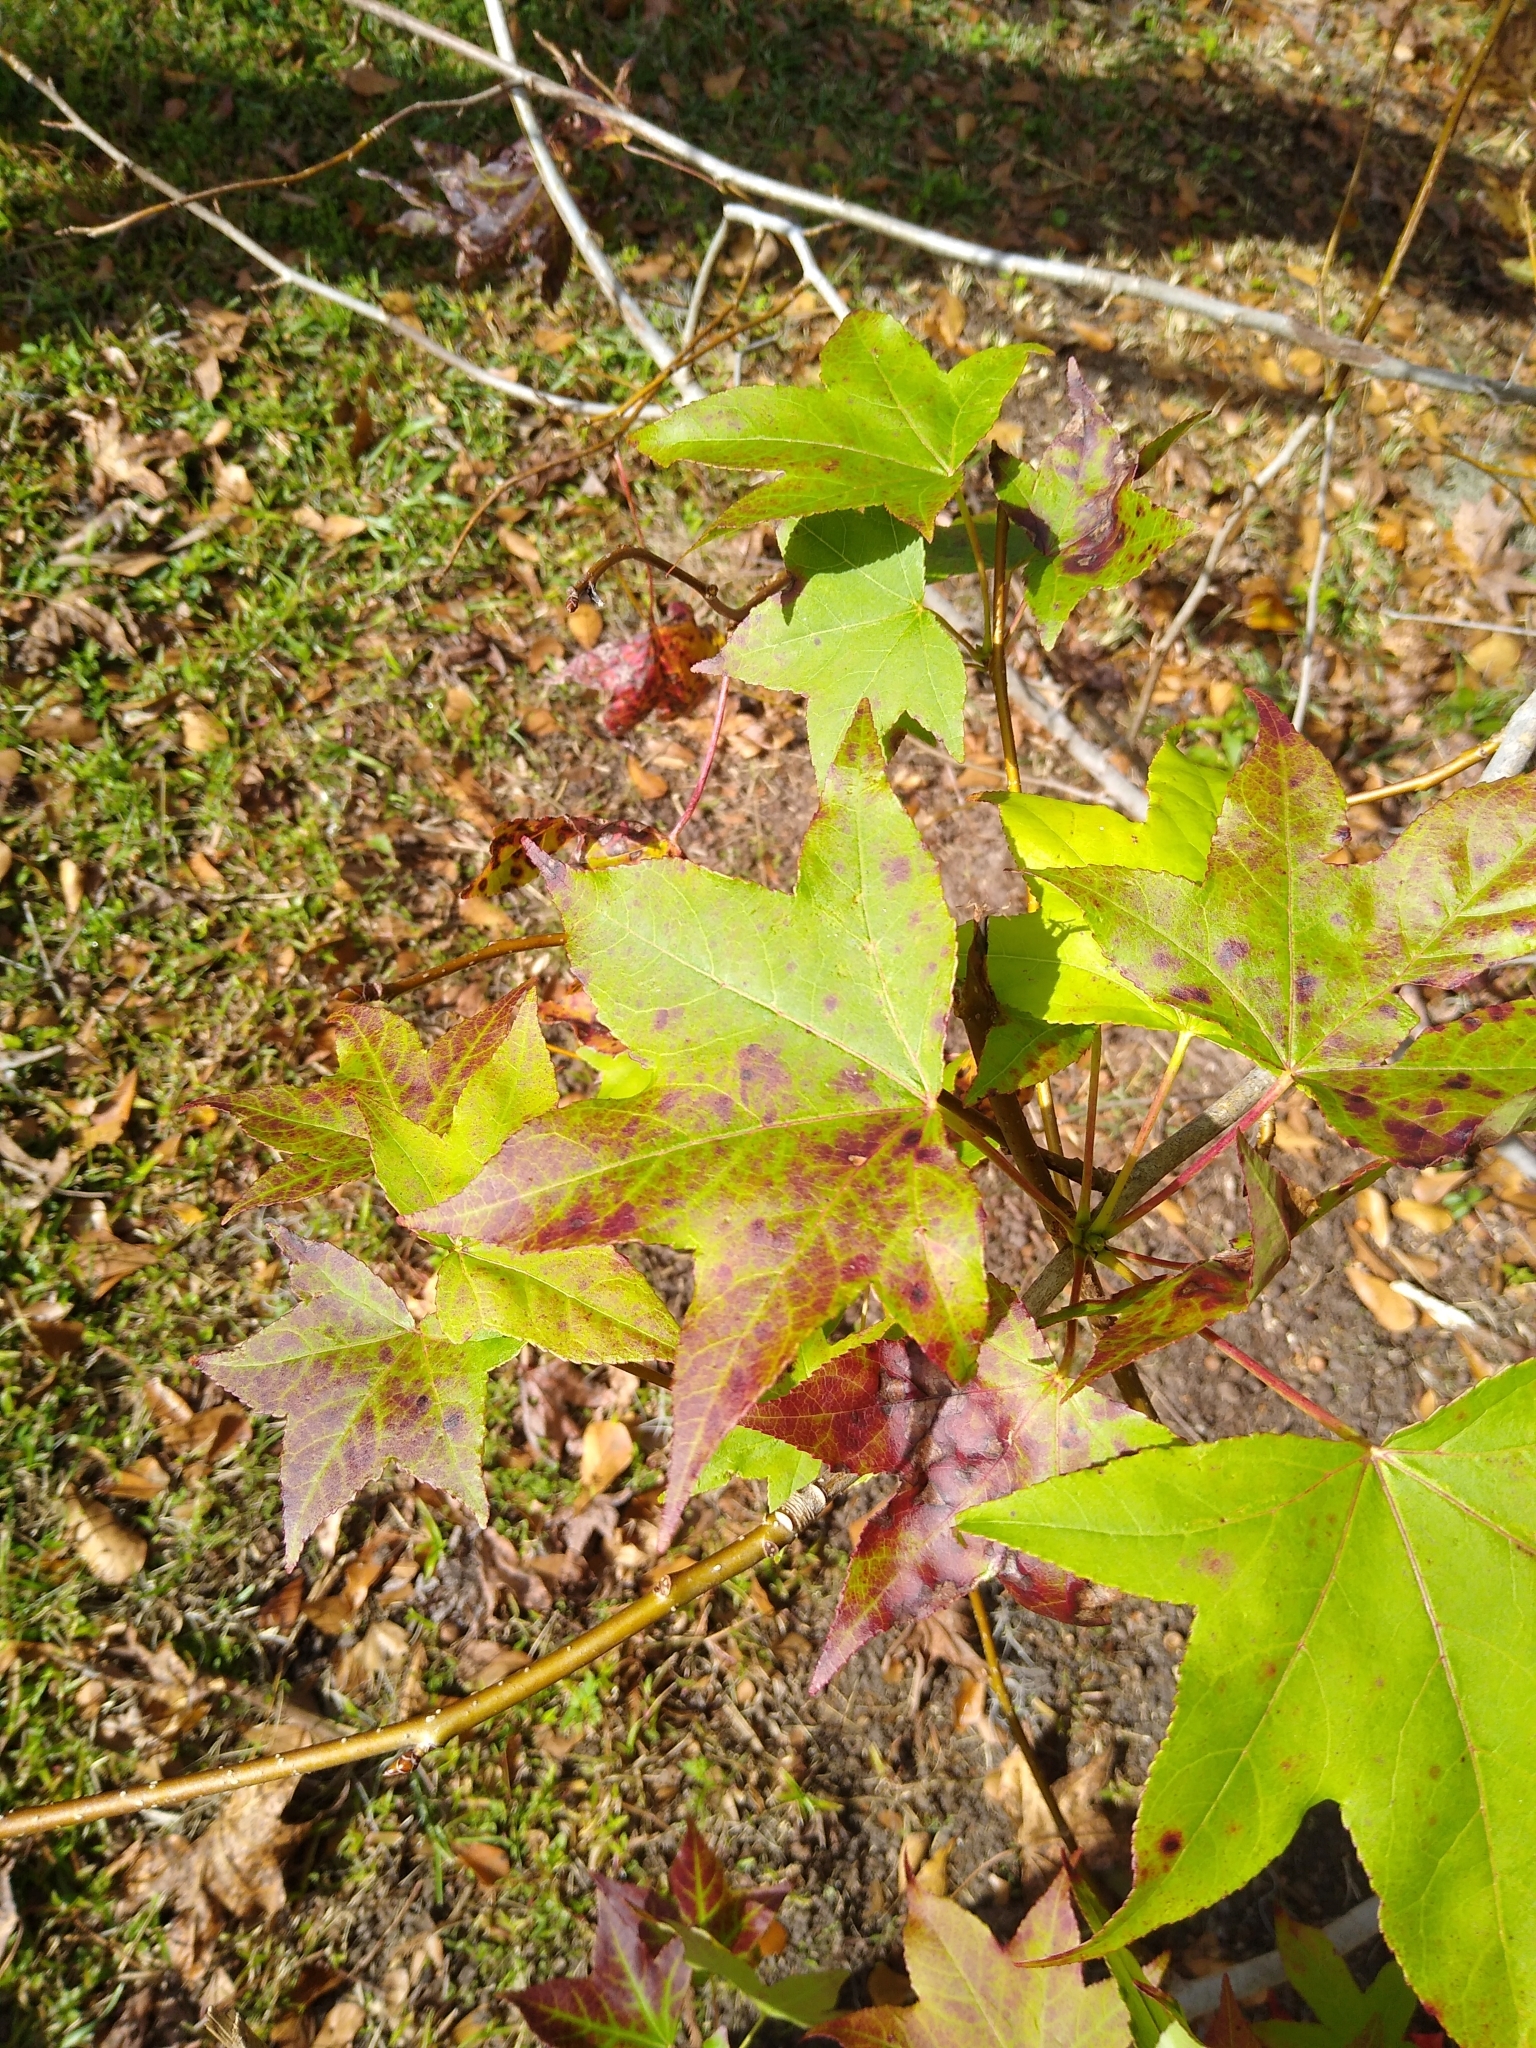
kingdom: Plantae
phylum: Tracheophyta
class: Magnoliopsida
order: Saxifragales
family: Altingiaceae
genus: Liquidambar
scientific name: Liquidambar styraciflua
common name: Sweet gum
